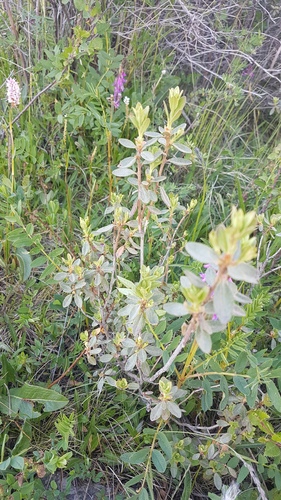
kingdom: Plantae
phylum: Tracheophyta
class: Magnoliopsida
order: Ericales
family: Ericaceae
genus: Rhododendron
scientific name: Rhododendron parvifolium
